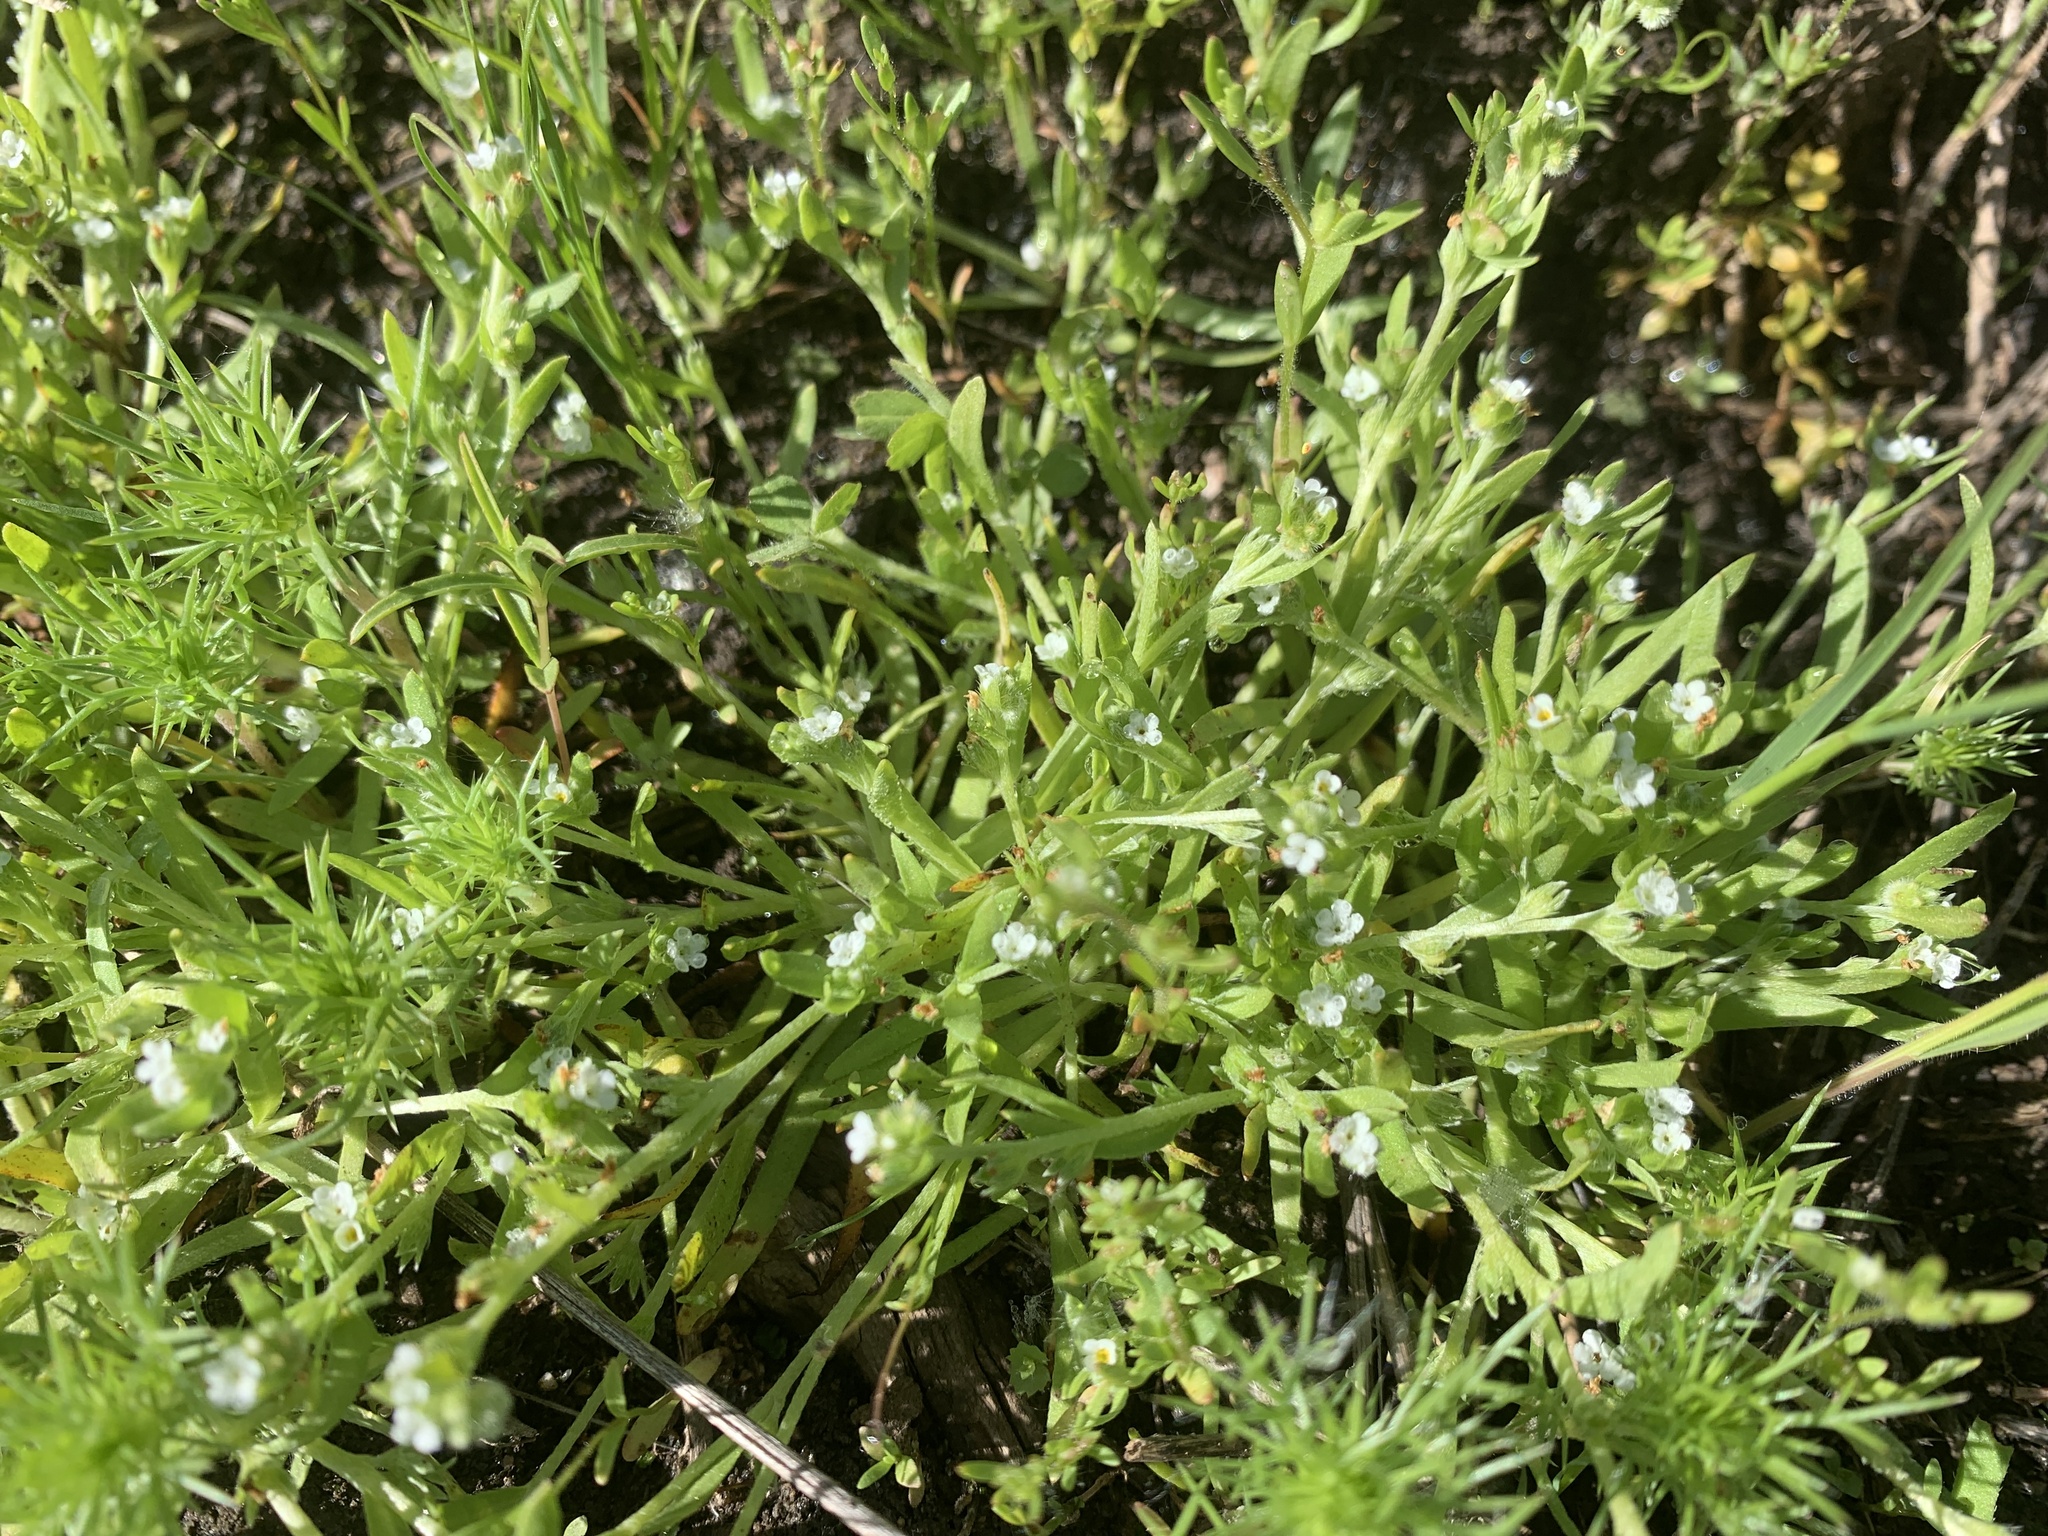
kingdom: Plantae
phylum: Tracheophyta
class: Magnoliopsida
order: Boraginales
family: Boraginaceae
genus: Plagiobothrys
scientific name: Plagiobothrys leptocladus
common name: Alkali popcornflower
